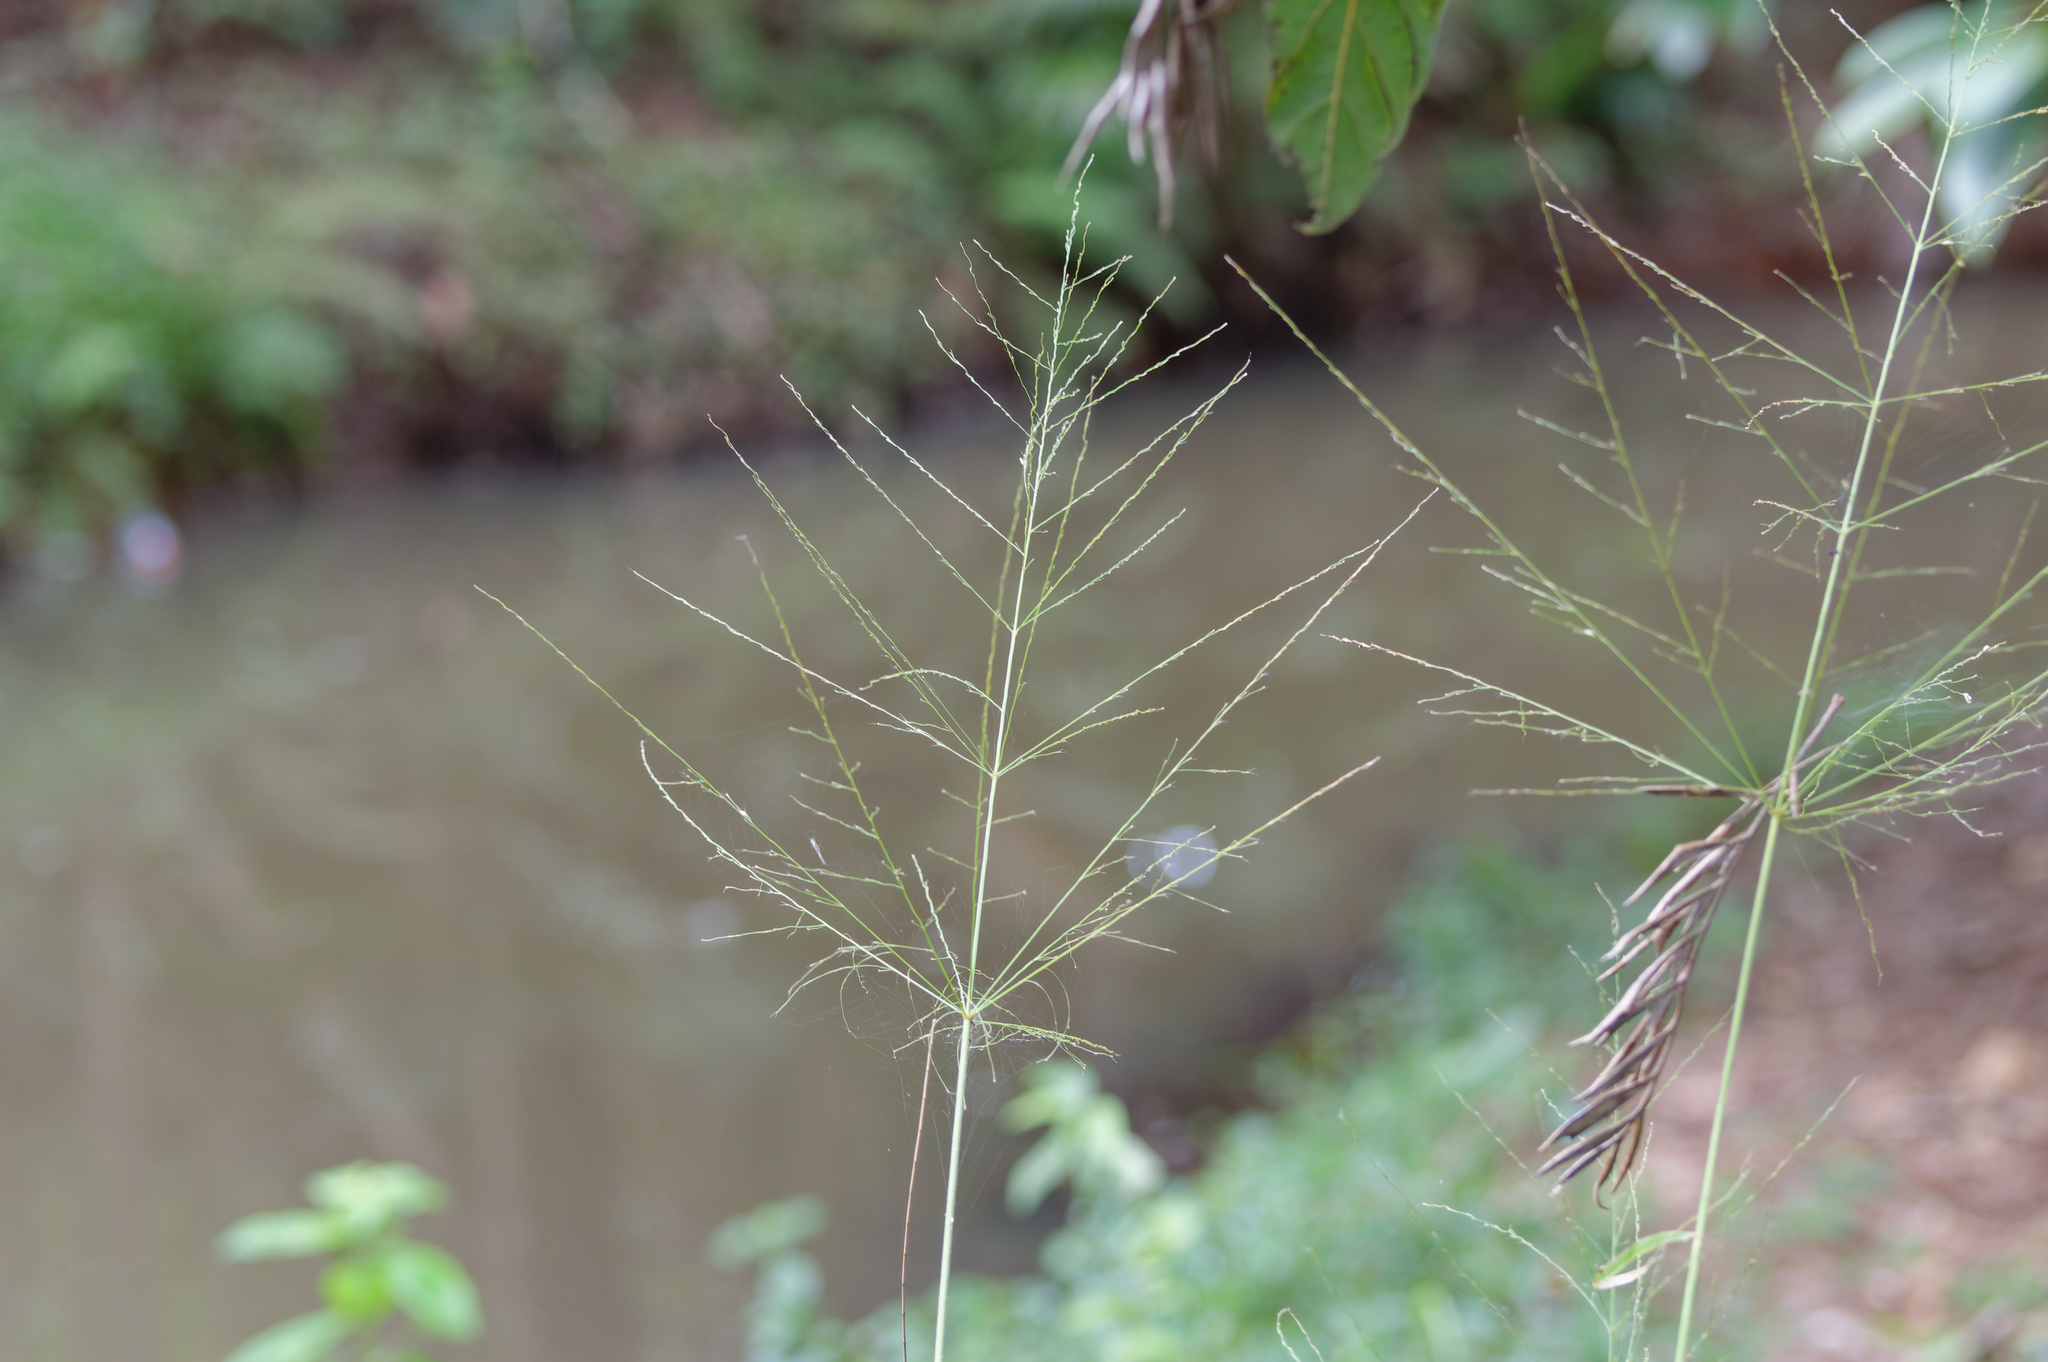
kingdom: Plantae
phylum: Tracheophyta
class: Liliopsida
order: Poales
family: Poaceae
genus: Megathyrsus
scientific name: Megathyrsus maximus
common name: Guineagrass
